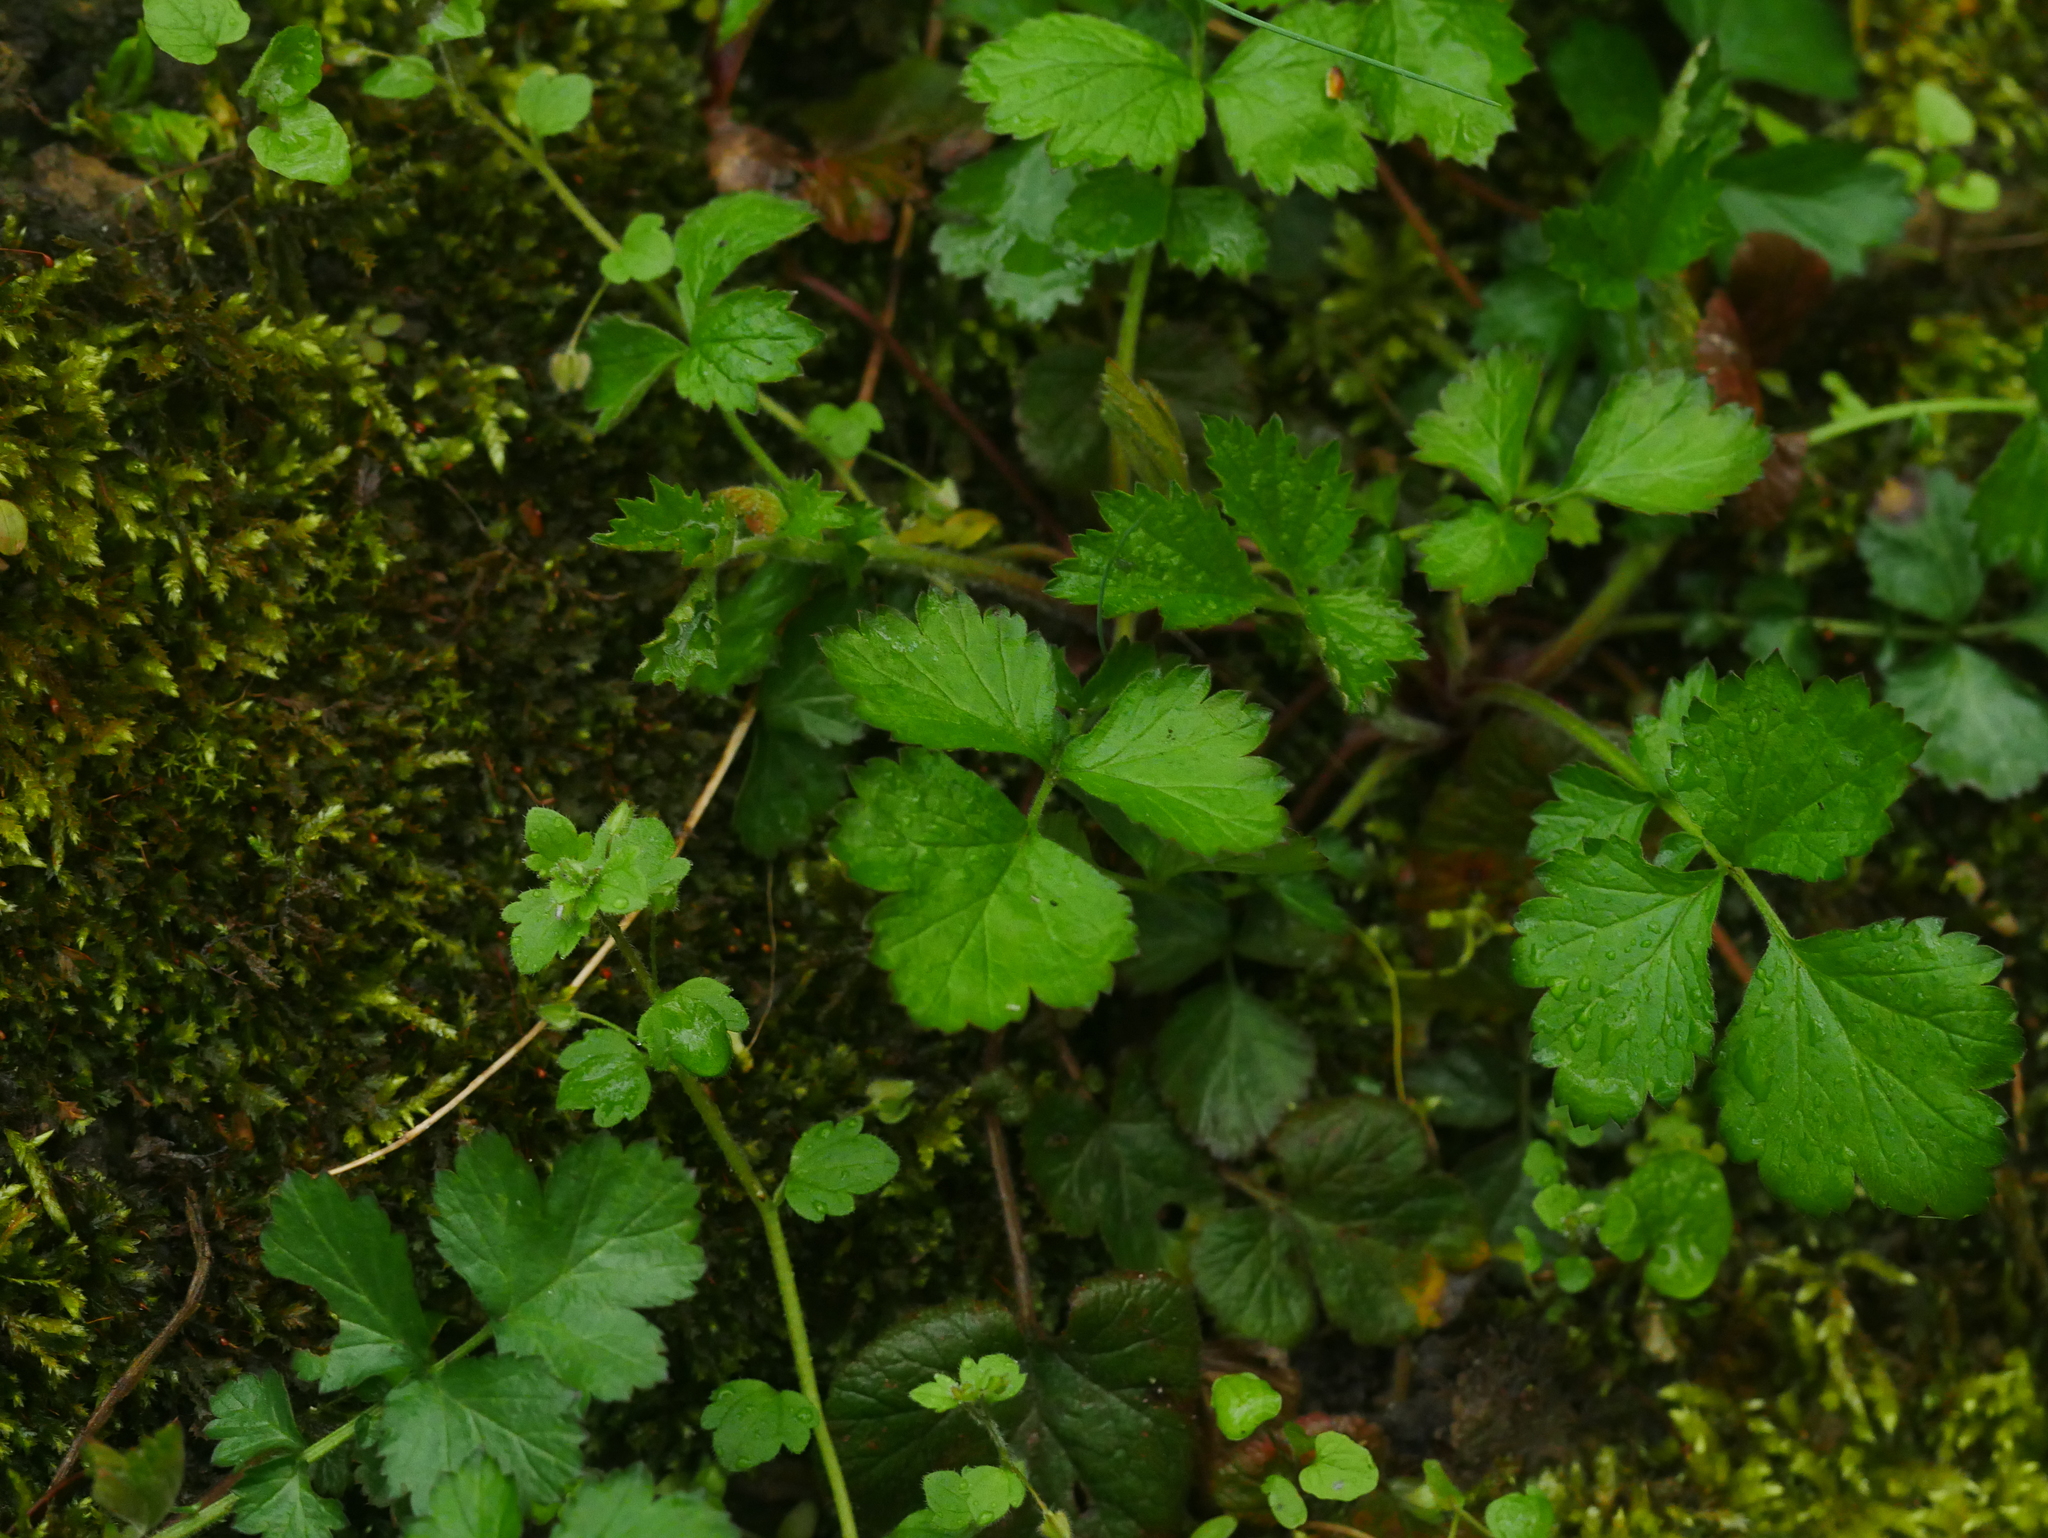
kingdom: Plantae
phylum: Tracheophyta
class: Magnoliopsida
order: Rosales
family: Rosaceae
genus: Geum
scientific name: Geum urbanum
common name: Wood avens
